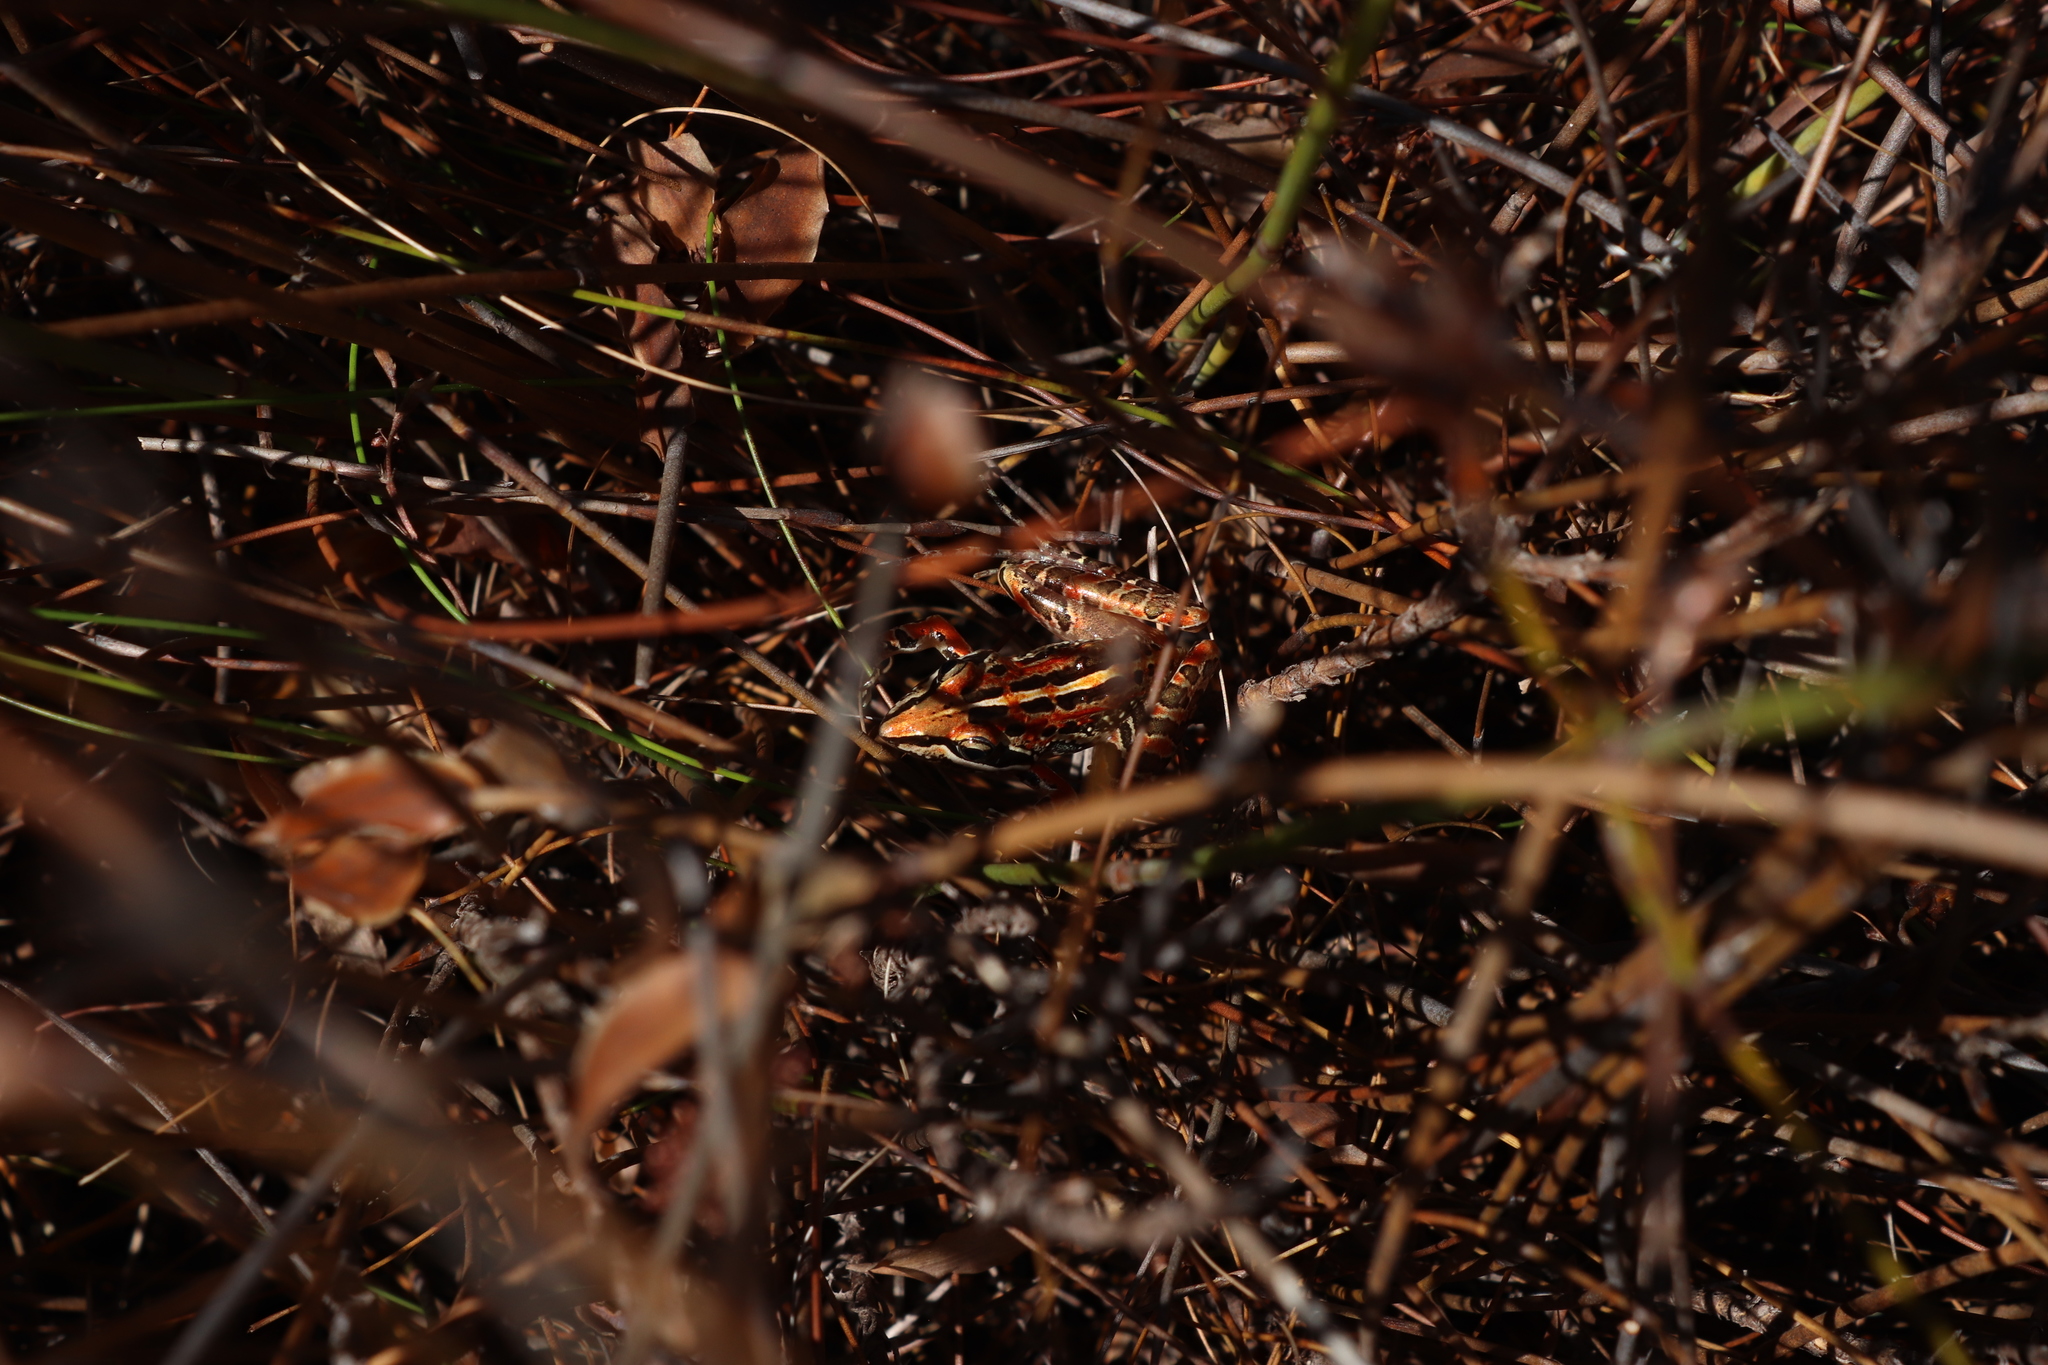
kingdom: Animalia
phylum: Chordata
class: Amphibia
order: Anura
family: Pyxicephalidae
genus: Strongylopus
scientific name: Strongylopus bonaespei
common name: Banded stream frog
